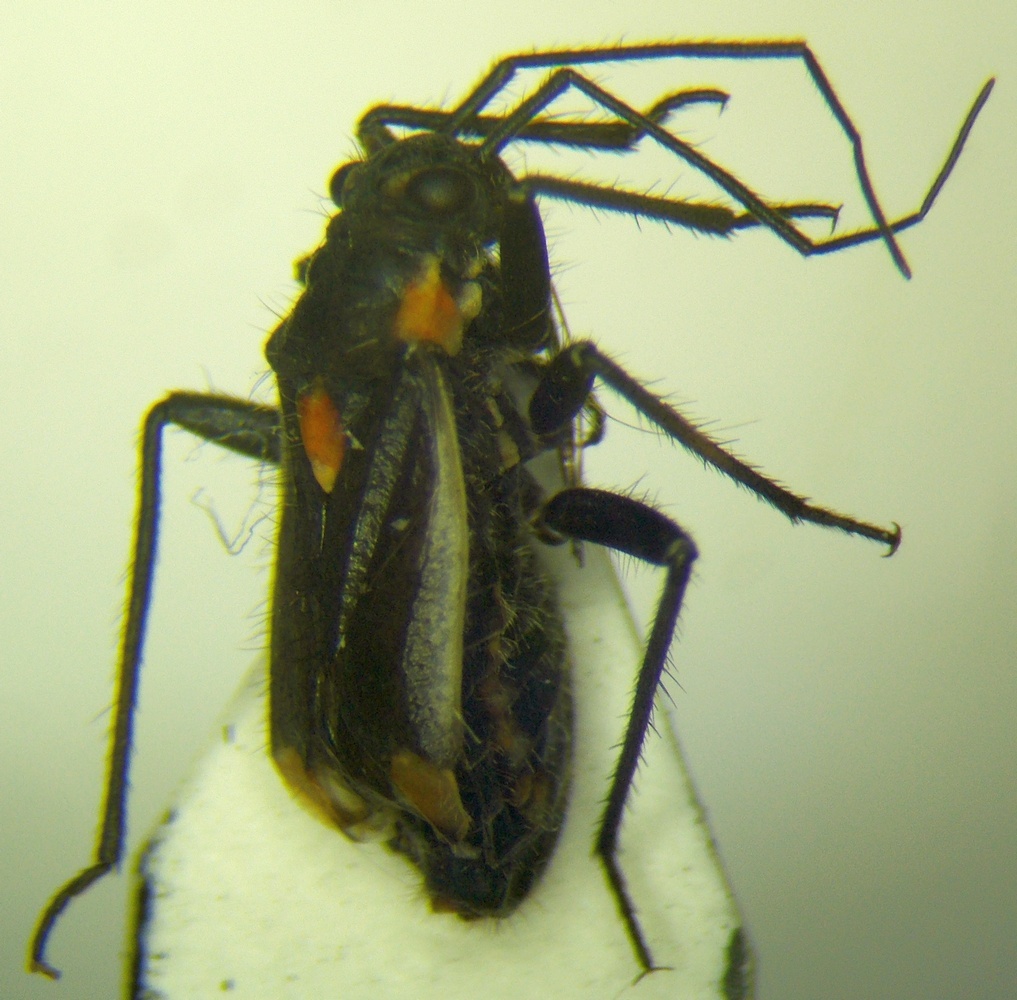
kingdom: Animalia
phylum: Arthropoda
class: Insecta
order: Hemiptera
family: Miridae
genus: Capsodes
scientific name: Capsodes gothicus
